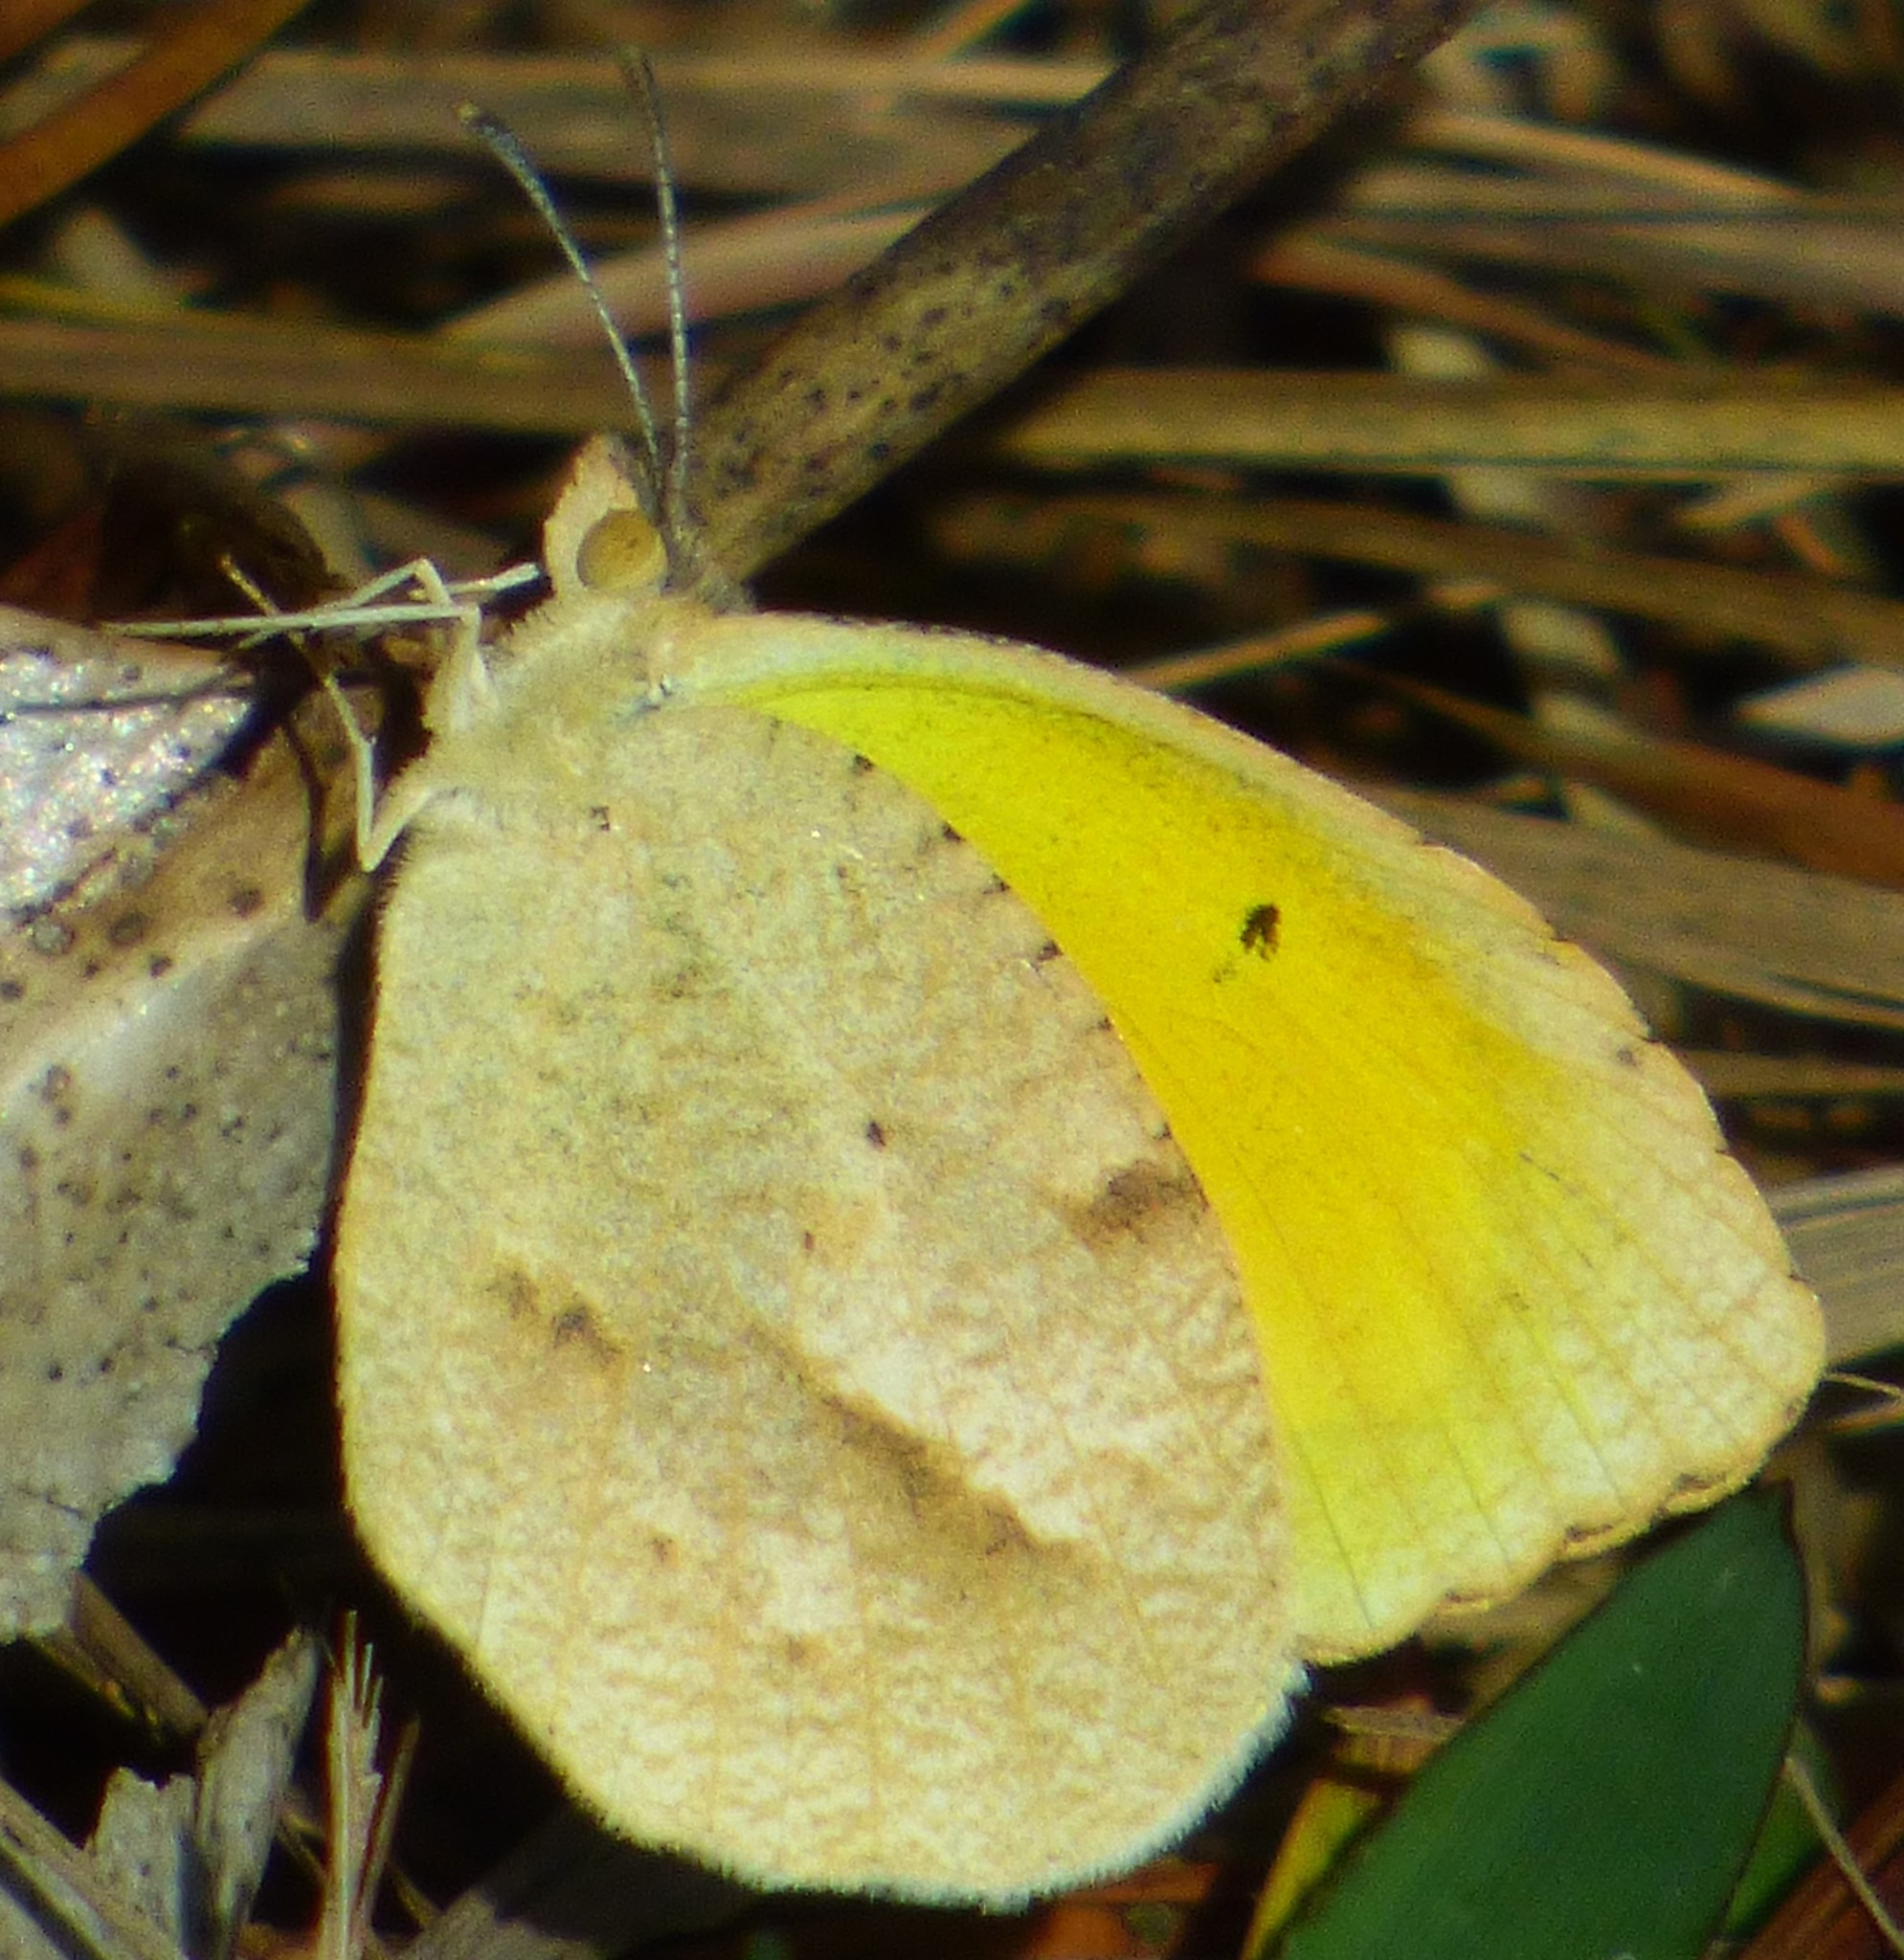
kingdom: Animalia
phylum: Arthropoda
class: Insecta
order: Lepidoptera
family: Pieridae
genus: Abaeis
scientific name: Abaeis nicippe
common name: Sleepy orange
